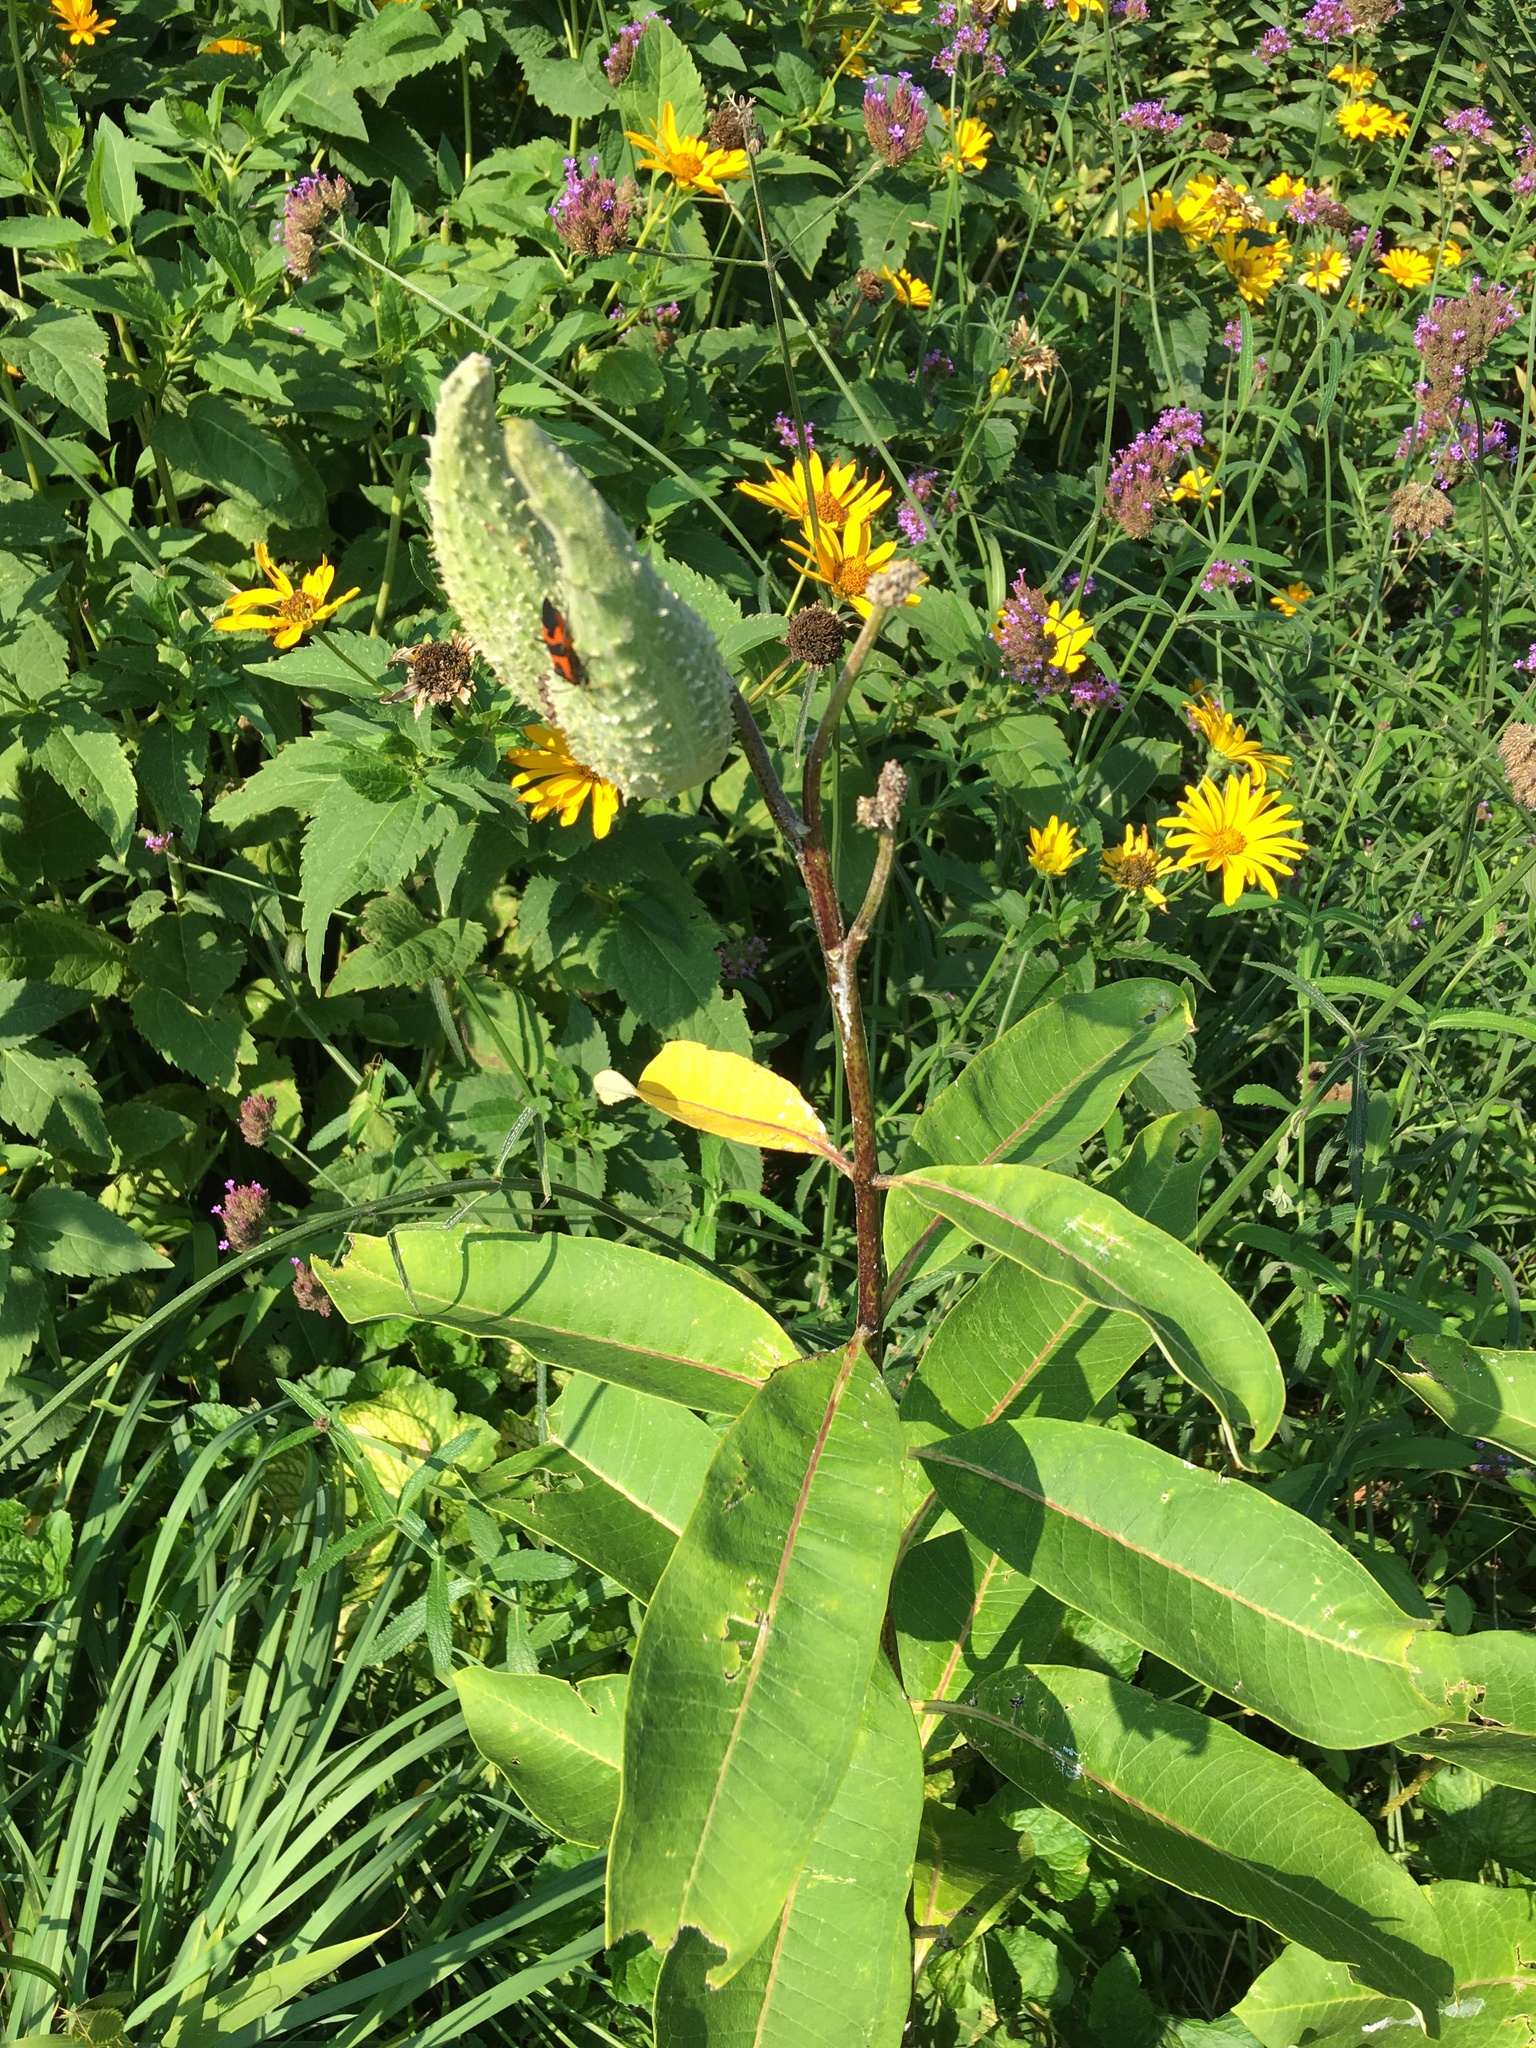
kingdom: Plantae
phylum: Tracheophyta
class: Magnoliopsida
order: Gentianales
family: Apocynaceae
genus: Asclepias
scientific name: Asclepias syriaca
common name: Common milkweed
